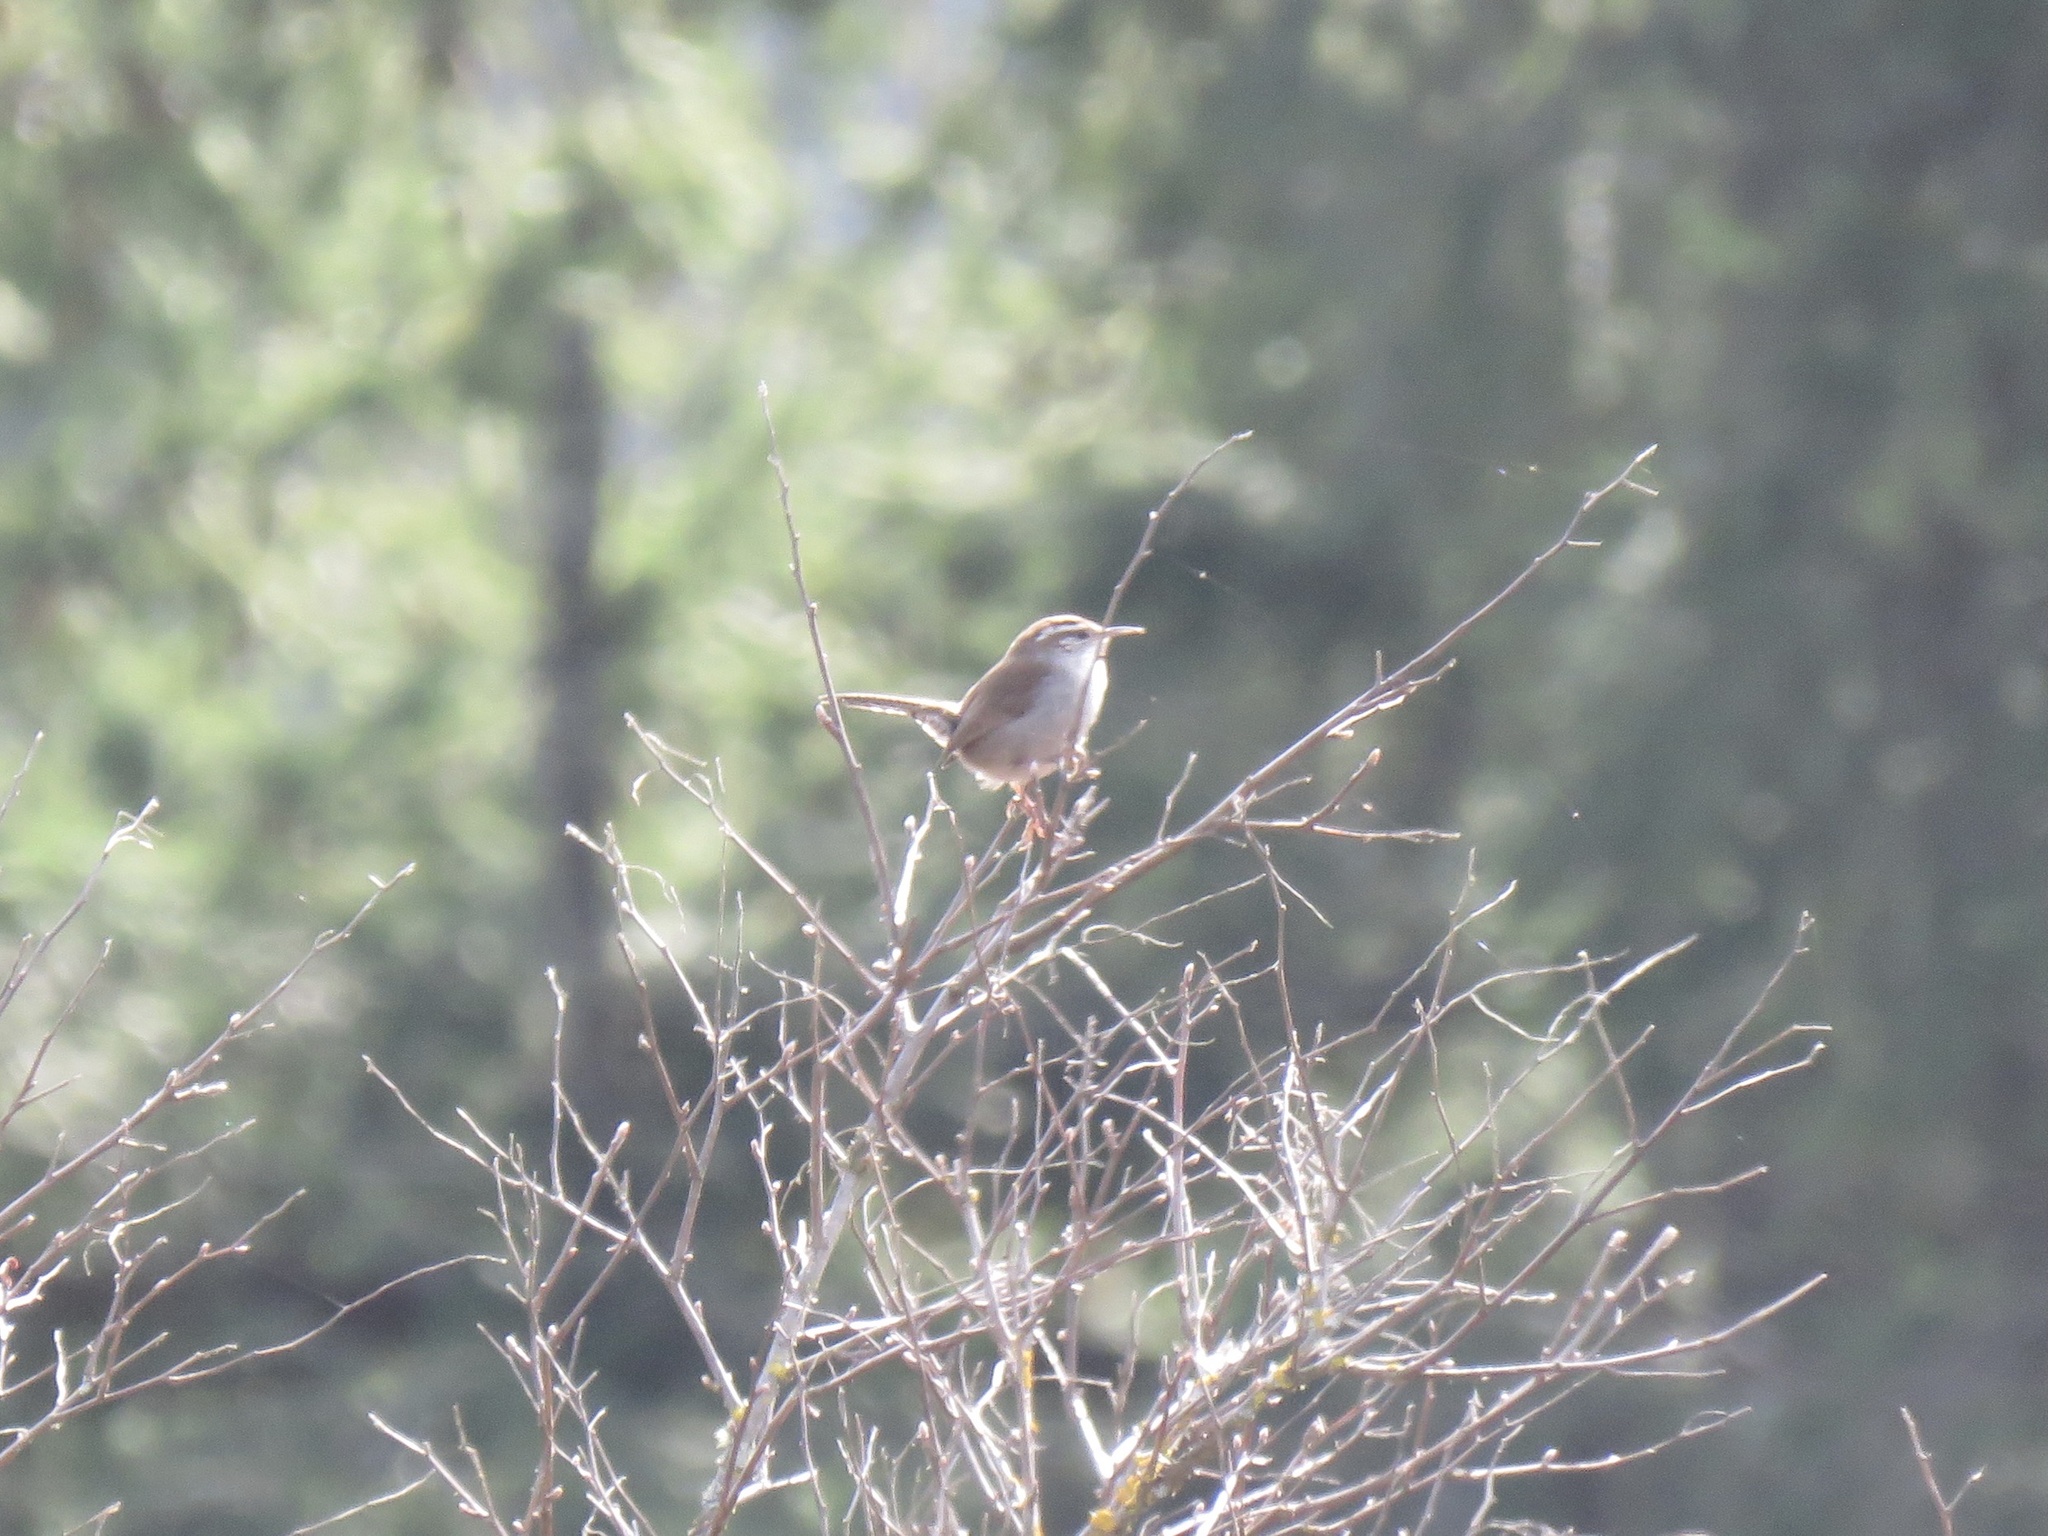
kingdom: Animalia
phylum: Chordata
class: Aves
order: Passeriformes
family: Troglodytidae
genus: Thryomanes
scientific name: Thryomanes bewickii
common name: Bewick's wren
